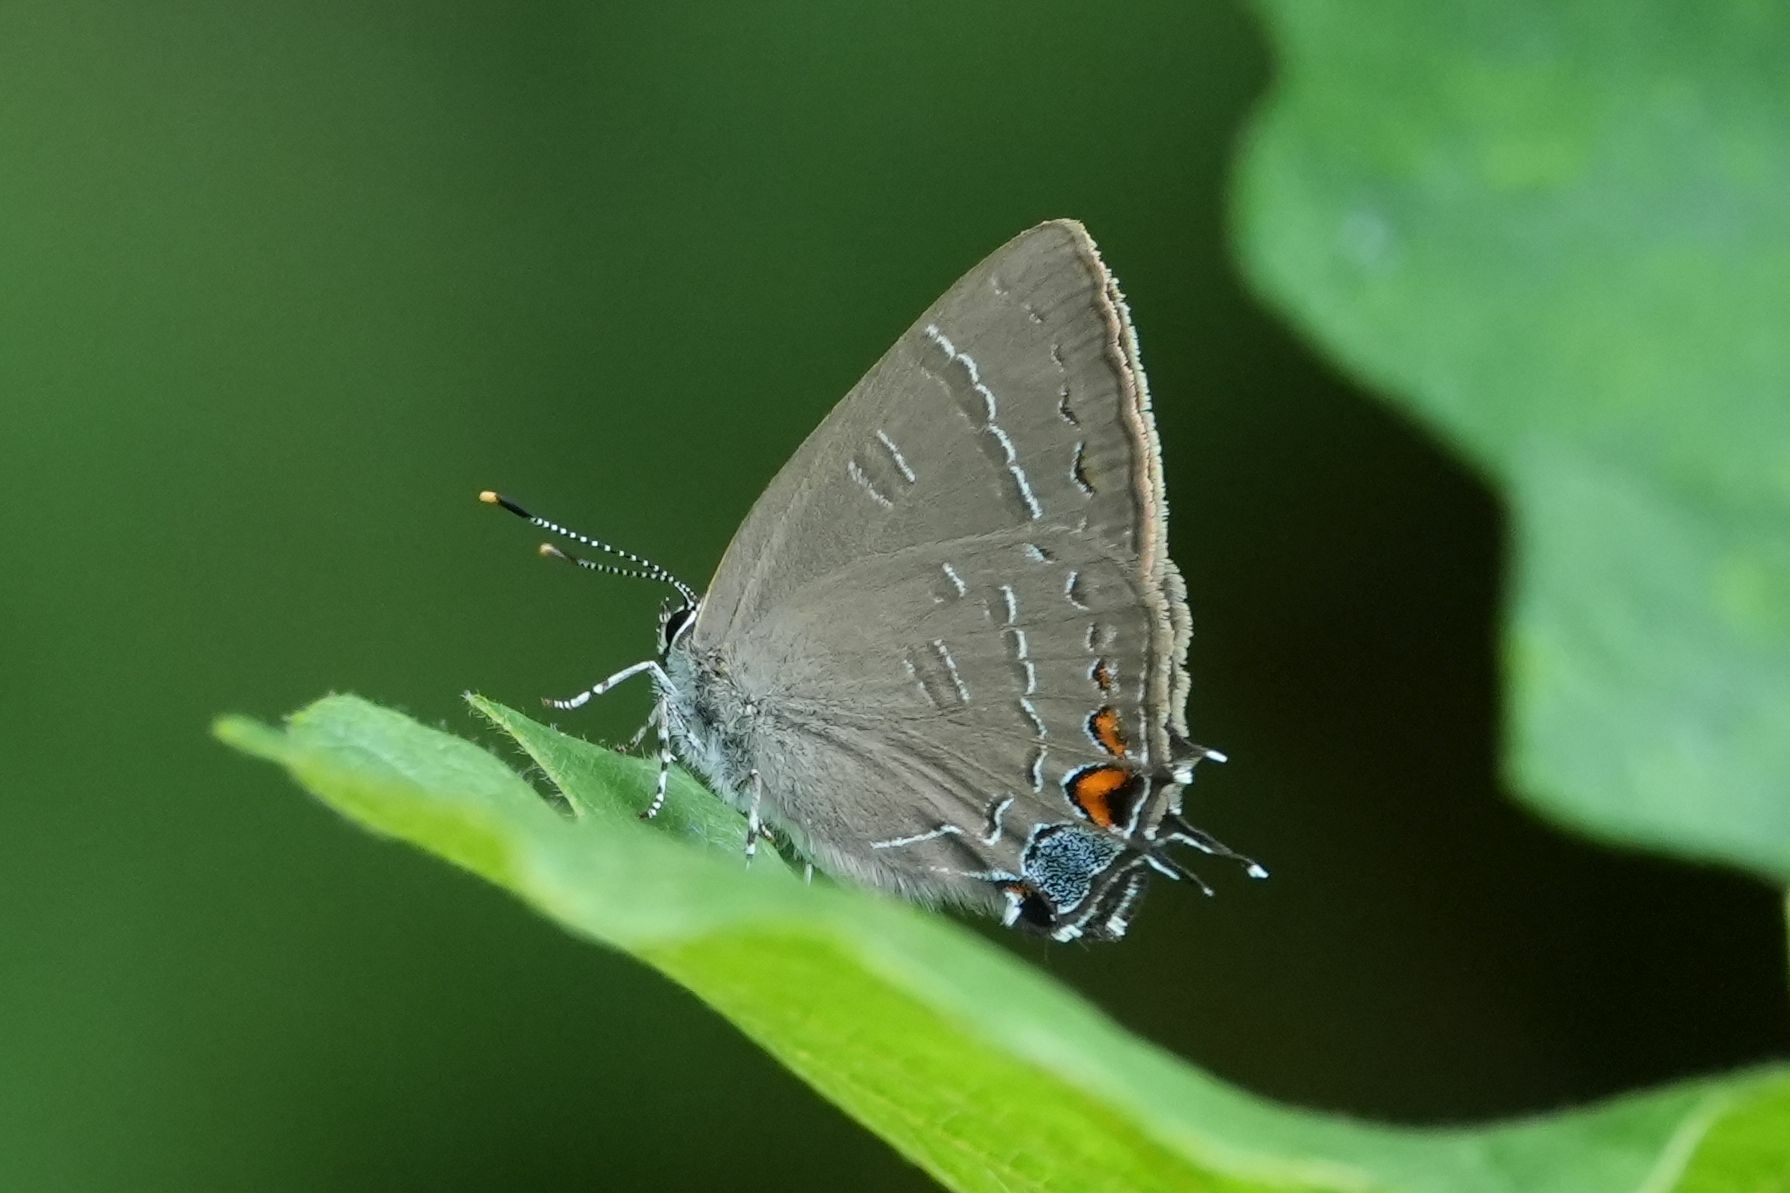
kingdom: Animalia
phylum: Arthropoda
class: Insecta
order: Lepidoptera
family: Lycaenidae
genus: Satyrium
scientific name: Satyrium calanus
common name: Banded hairstreak
